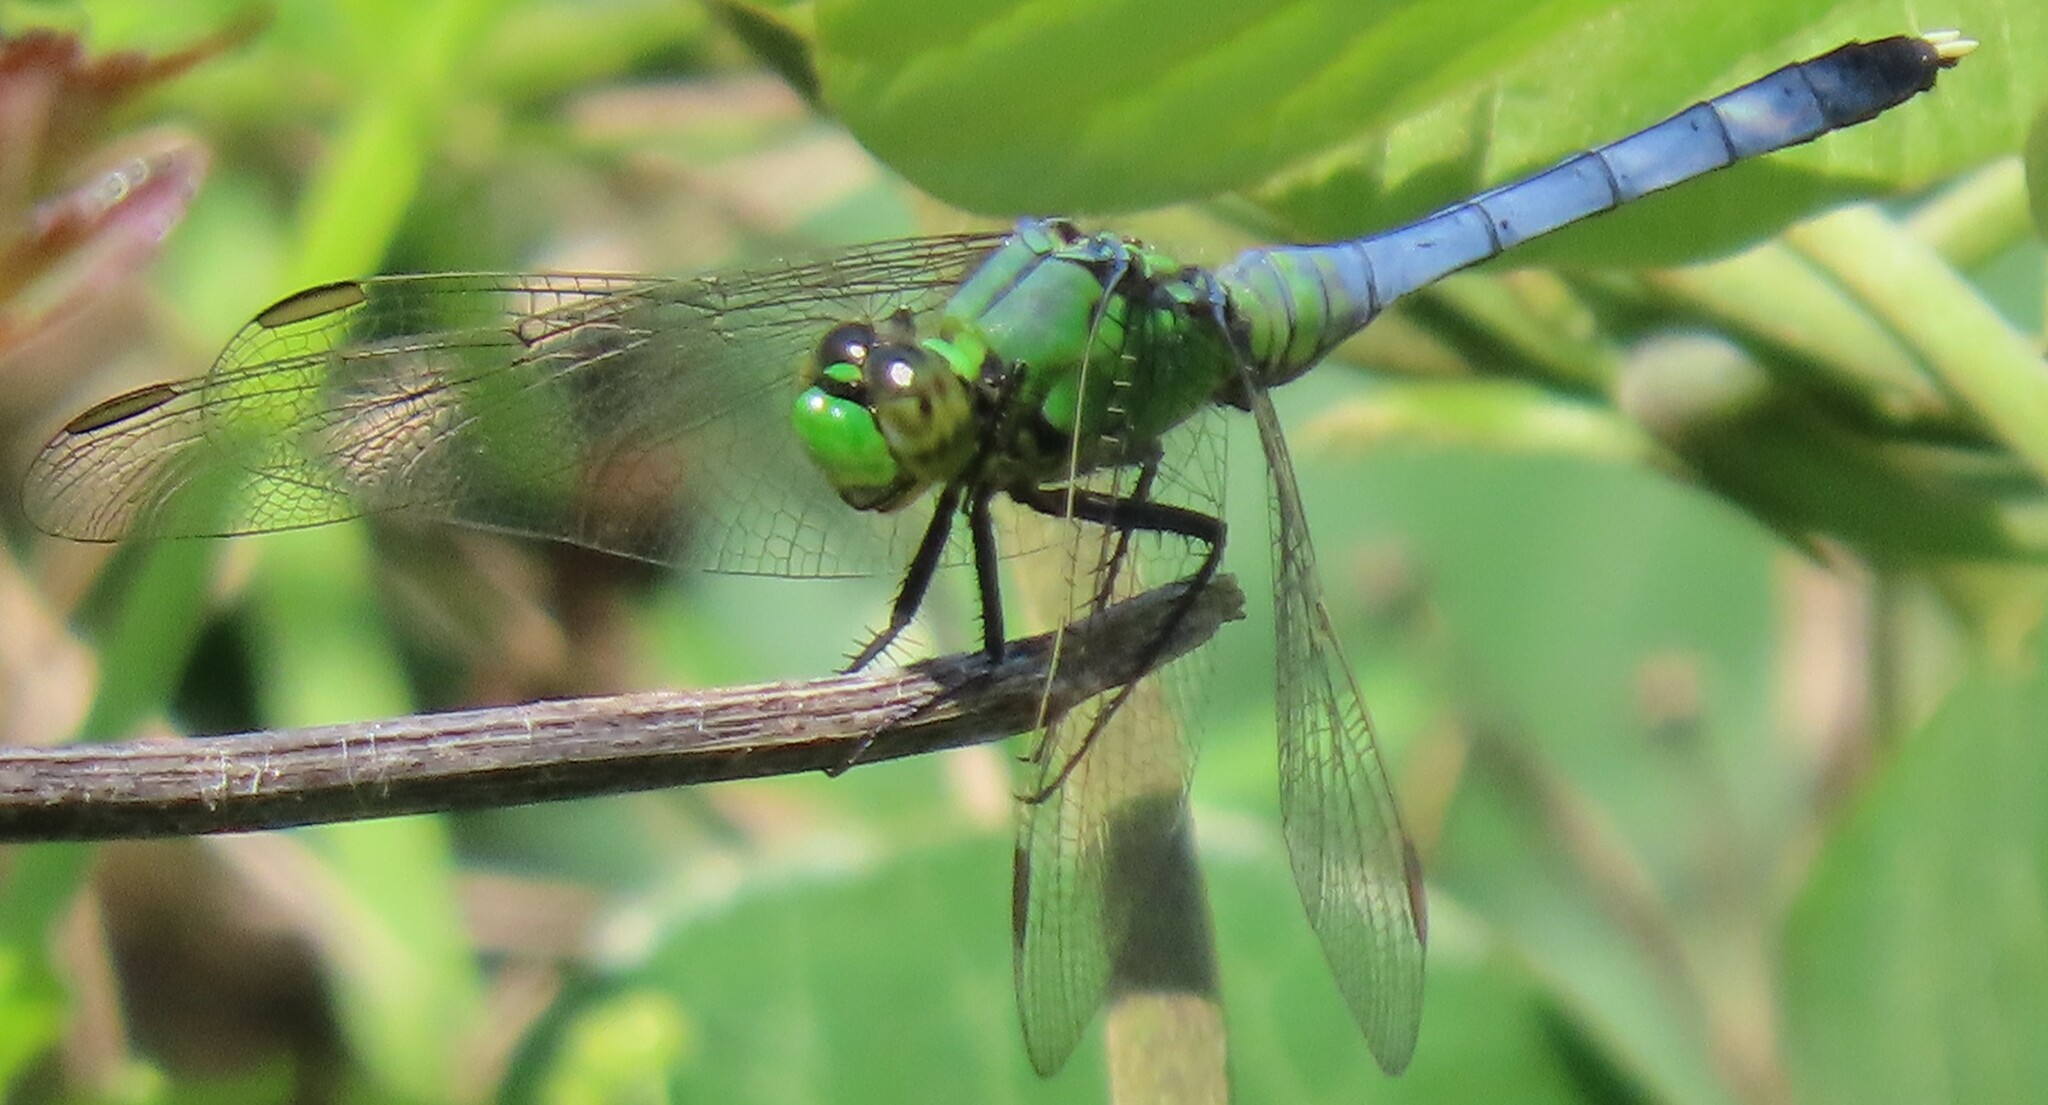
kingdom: Animalia
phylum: Arthropoda
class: Insecta
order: Odonata
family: Libellulidae
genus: Erythemis
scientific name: Erythemis simplicicollis
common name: Eastern pondhawk
